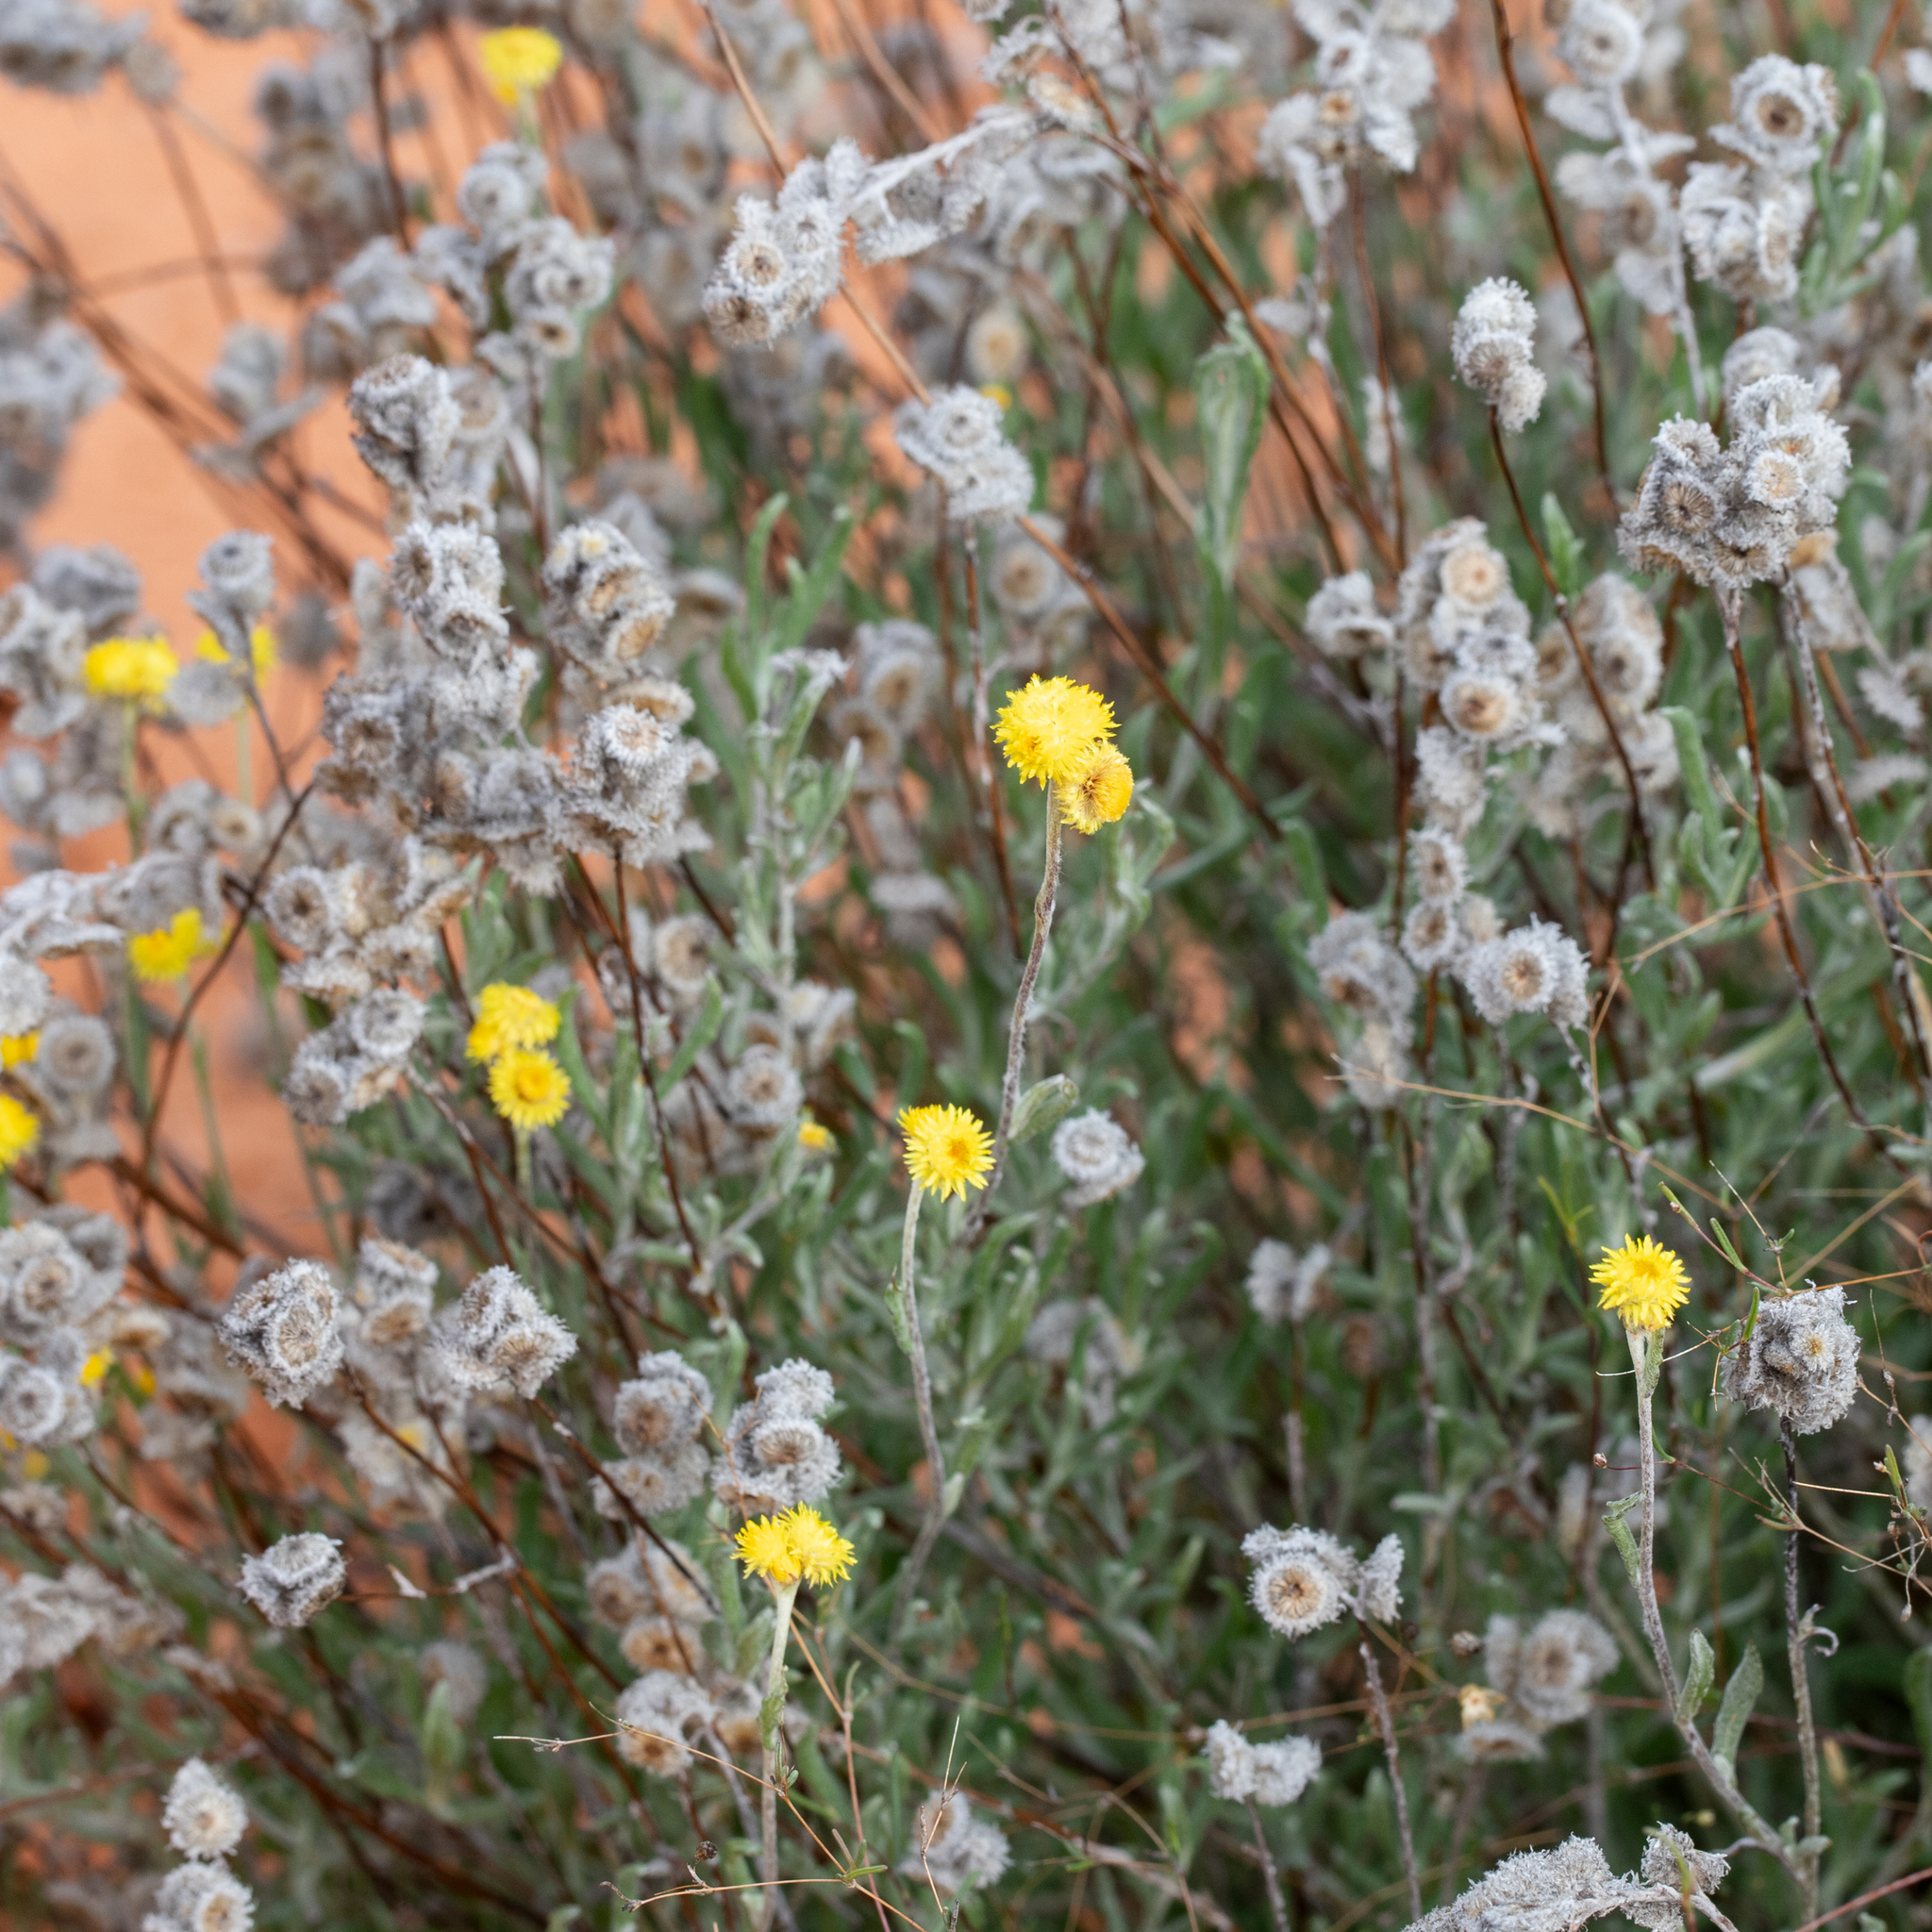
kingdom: Plantae
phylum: Tracheophyta
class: Magnoliopsida
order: Asterales
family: Asteraceae
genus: Chrysocephalum
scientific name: Chrysocephalum apiculatum
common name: Common everlasting
